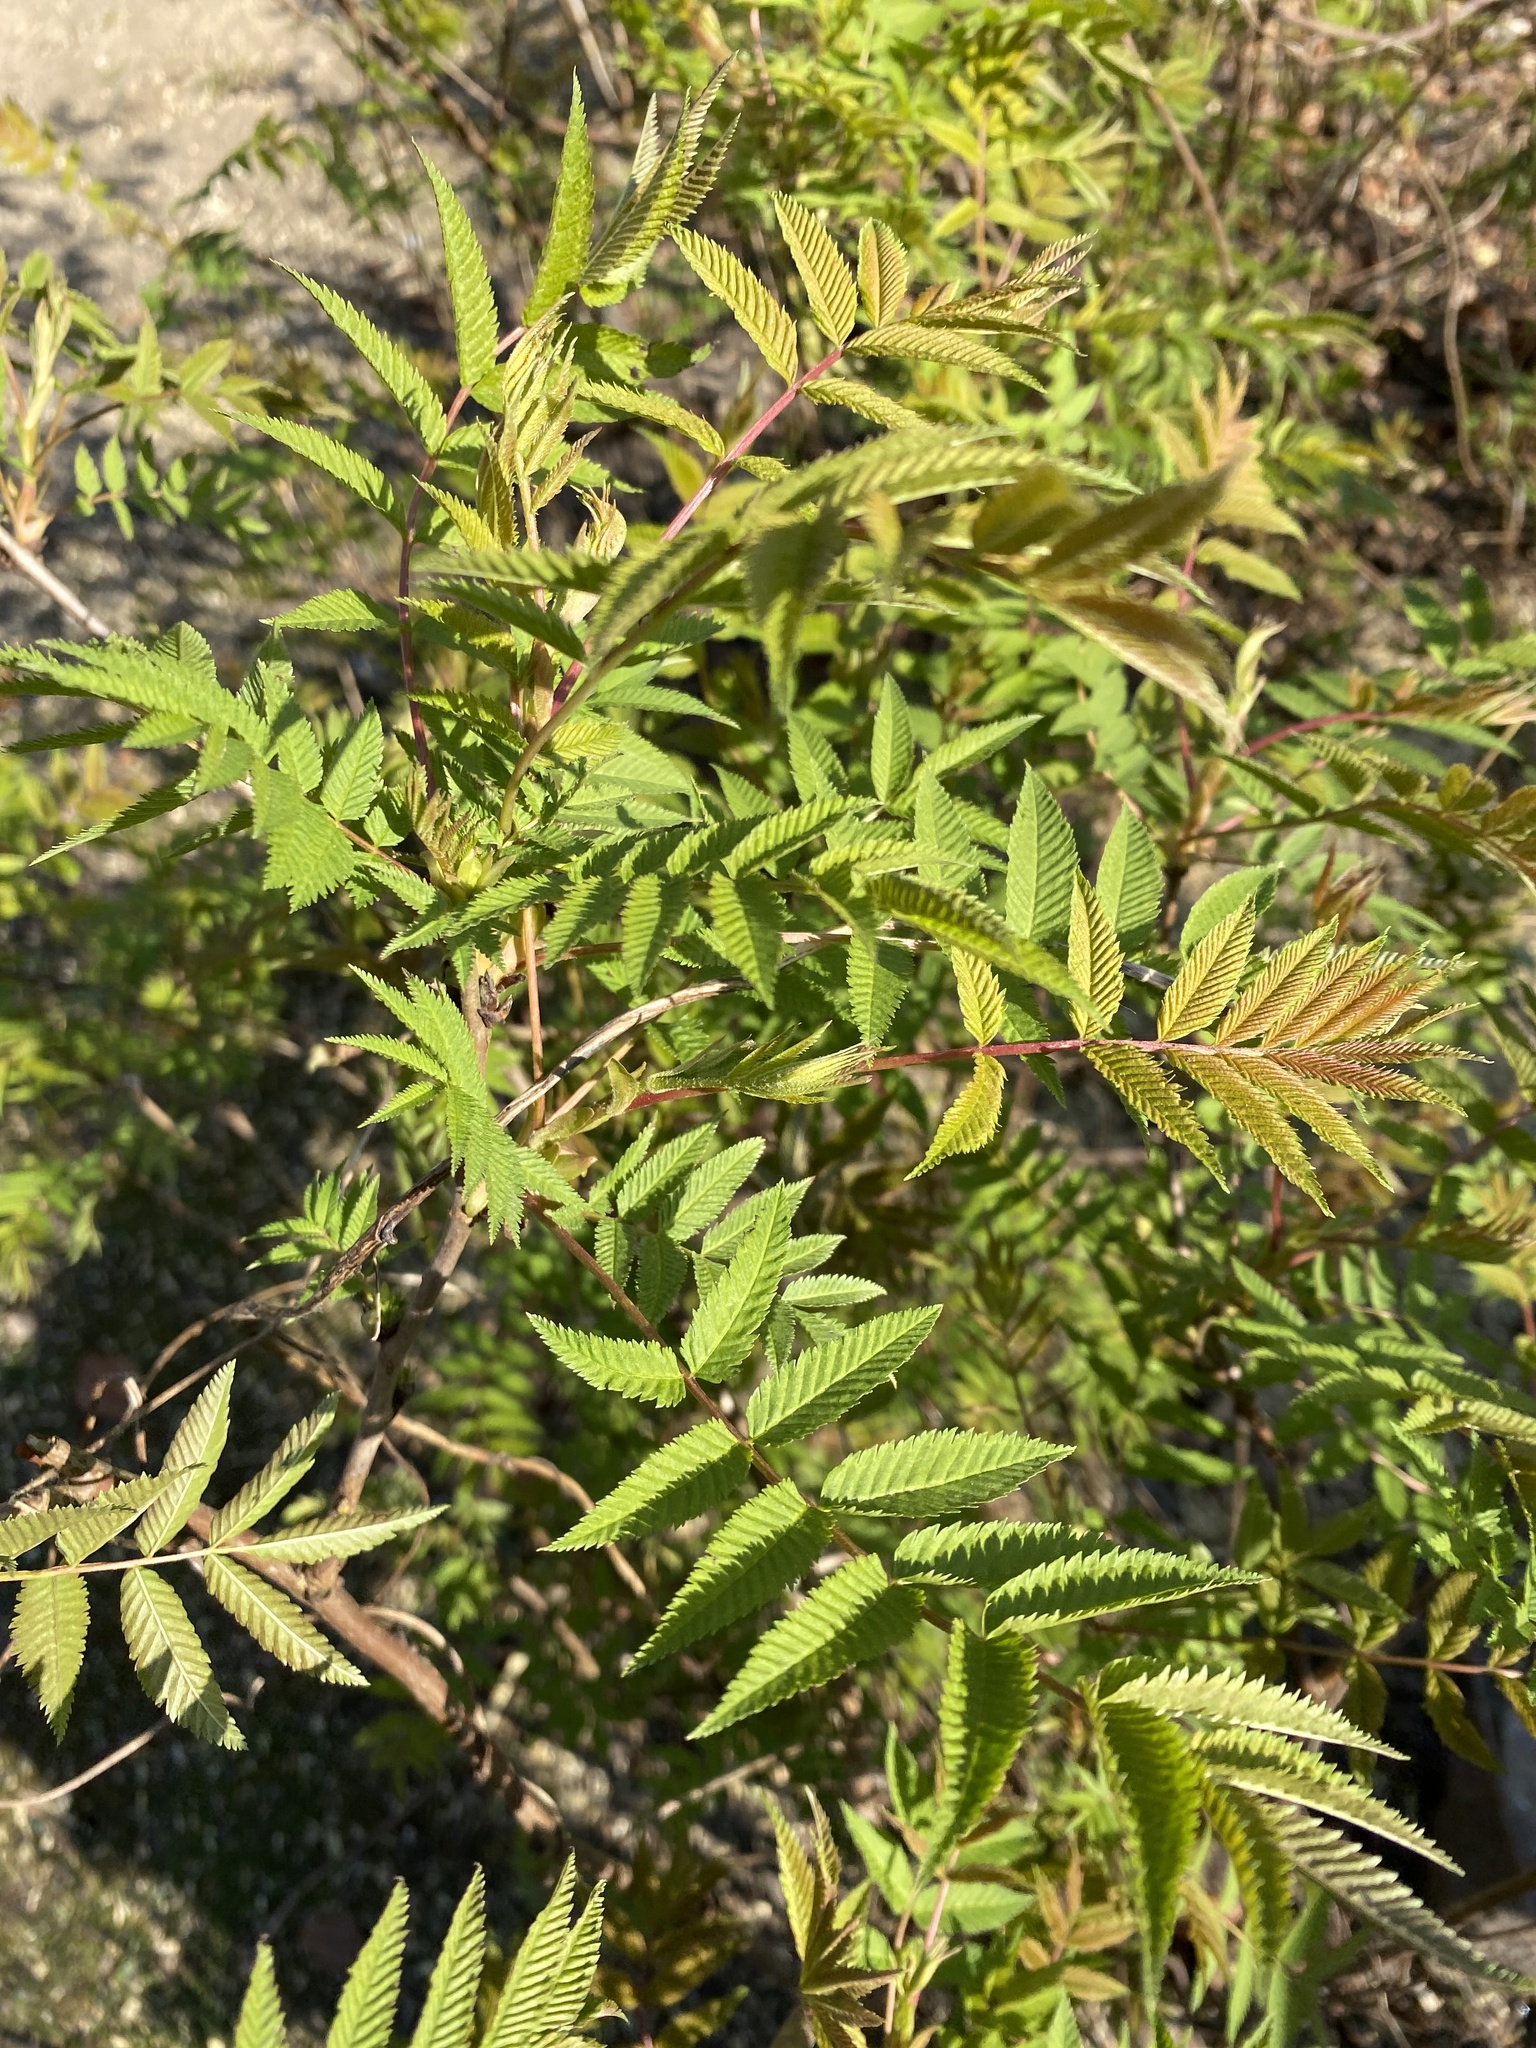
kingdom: Plantae
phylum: Tracheophyta
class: Magnoliopsida
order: Rosales
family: Rosaceae
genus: Sorbaria
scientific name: Sorbaria sorbifolia
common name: False spiraea
